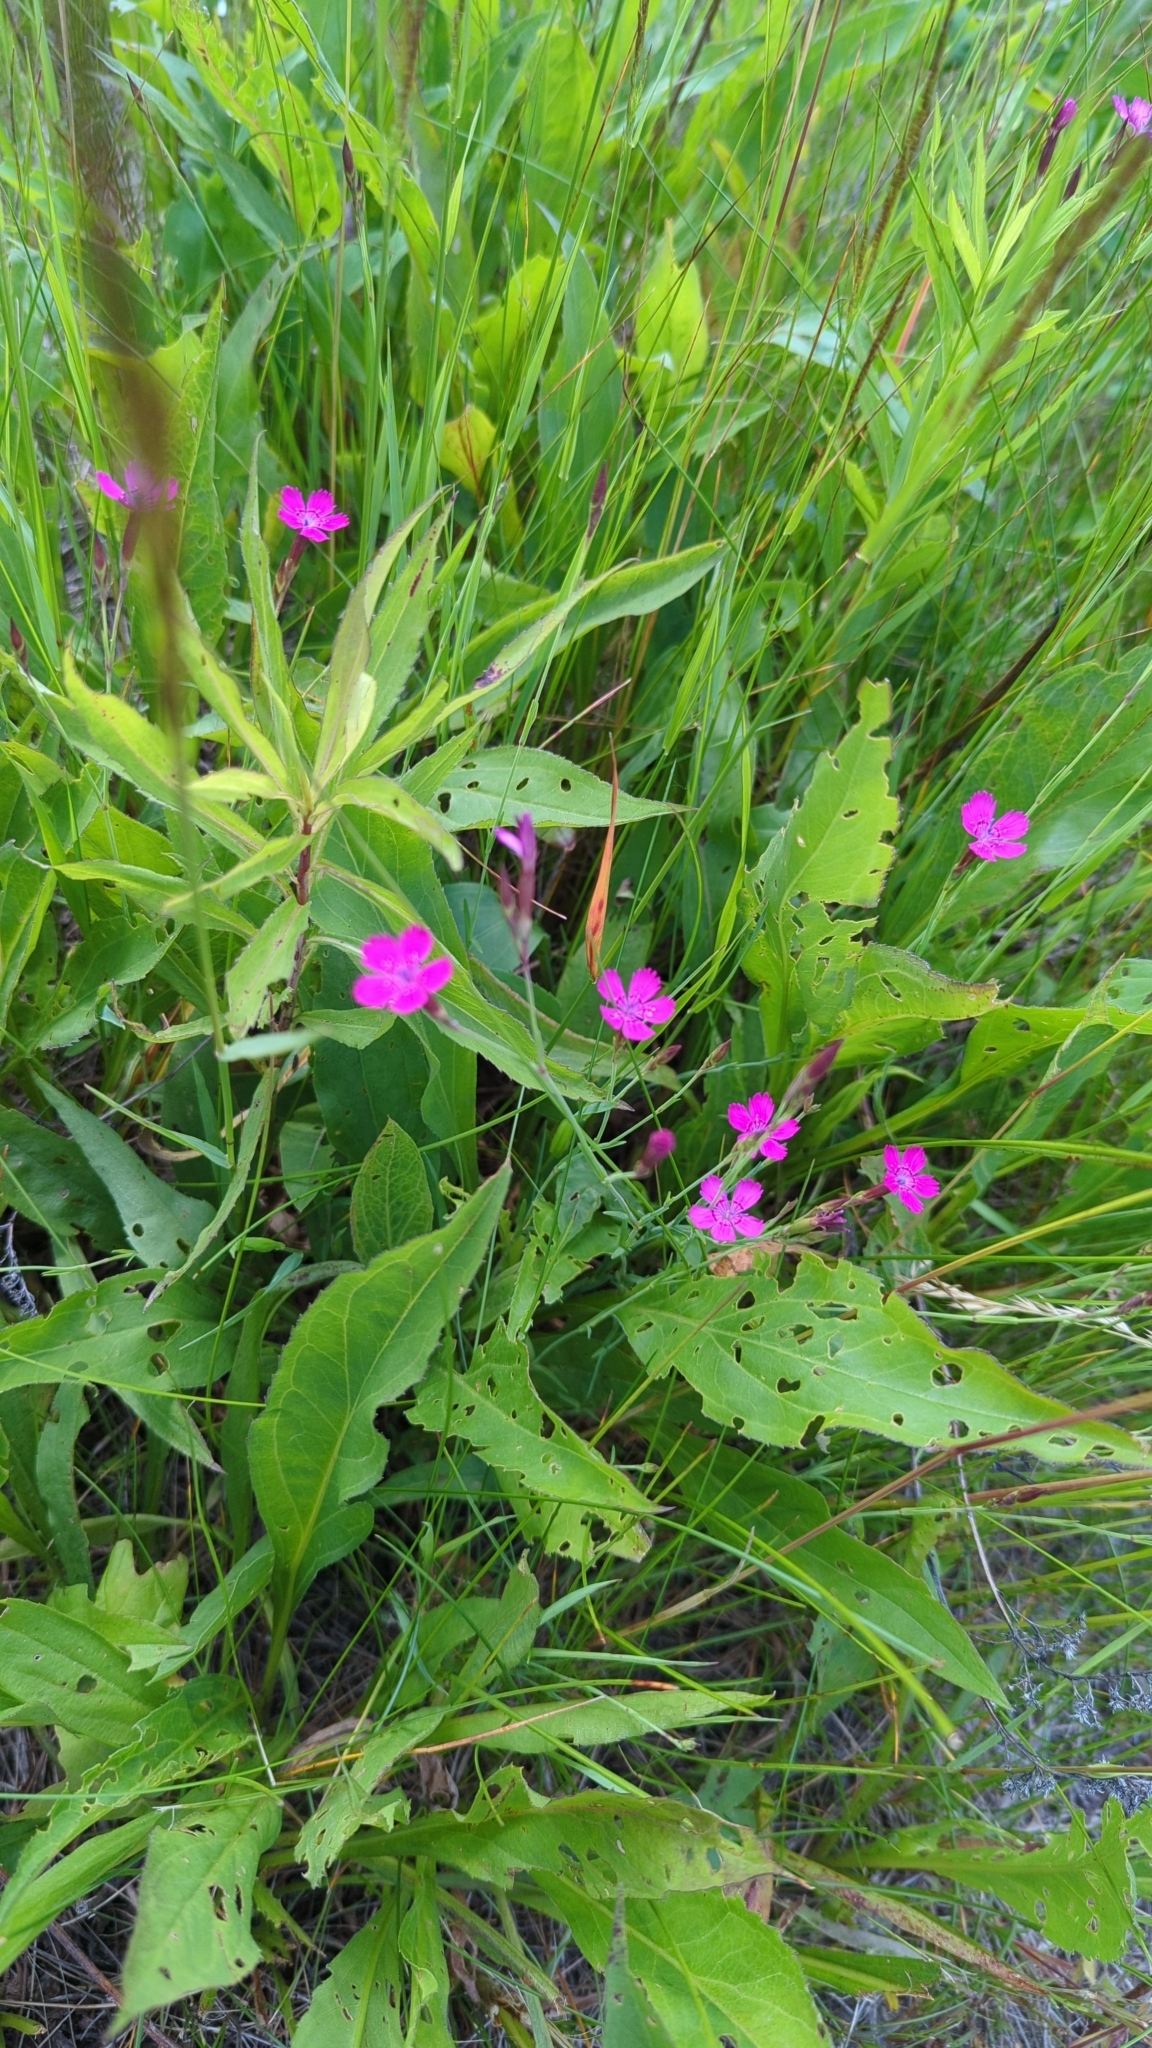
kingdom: Plantae
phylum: Tracheophyta
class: Magnoliopsida
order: Caryophyllales
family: Caryophyllaceae
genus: Dianthus
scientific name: Dianthus deltoides
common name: Maiden pink
